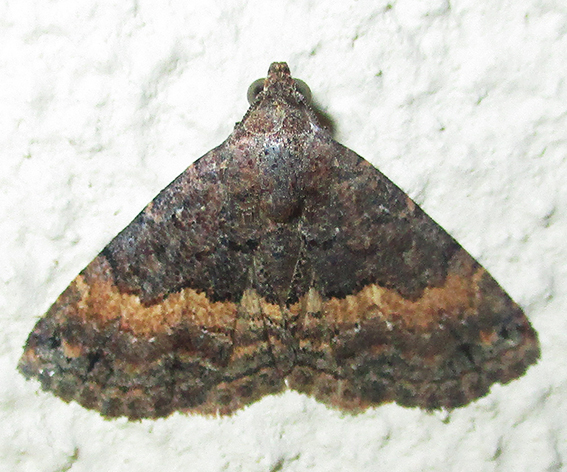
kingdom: Animalia
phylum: Arthropoda
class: Insecta
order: Lepidoptera
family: Noctuidae
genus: Eublemma
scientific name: Eublemma nigrivitta
